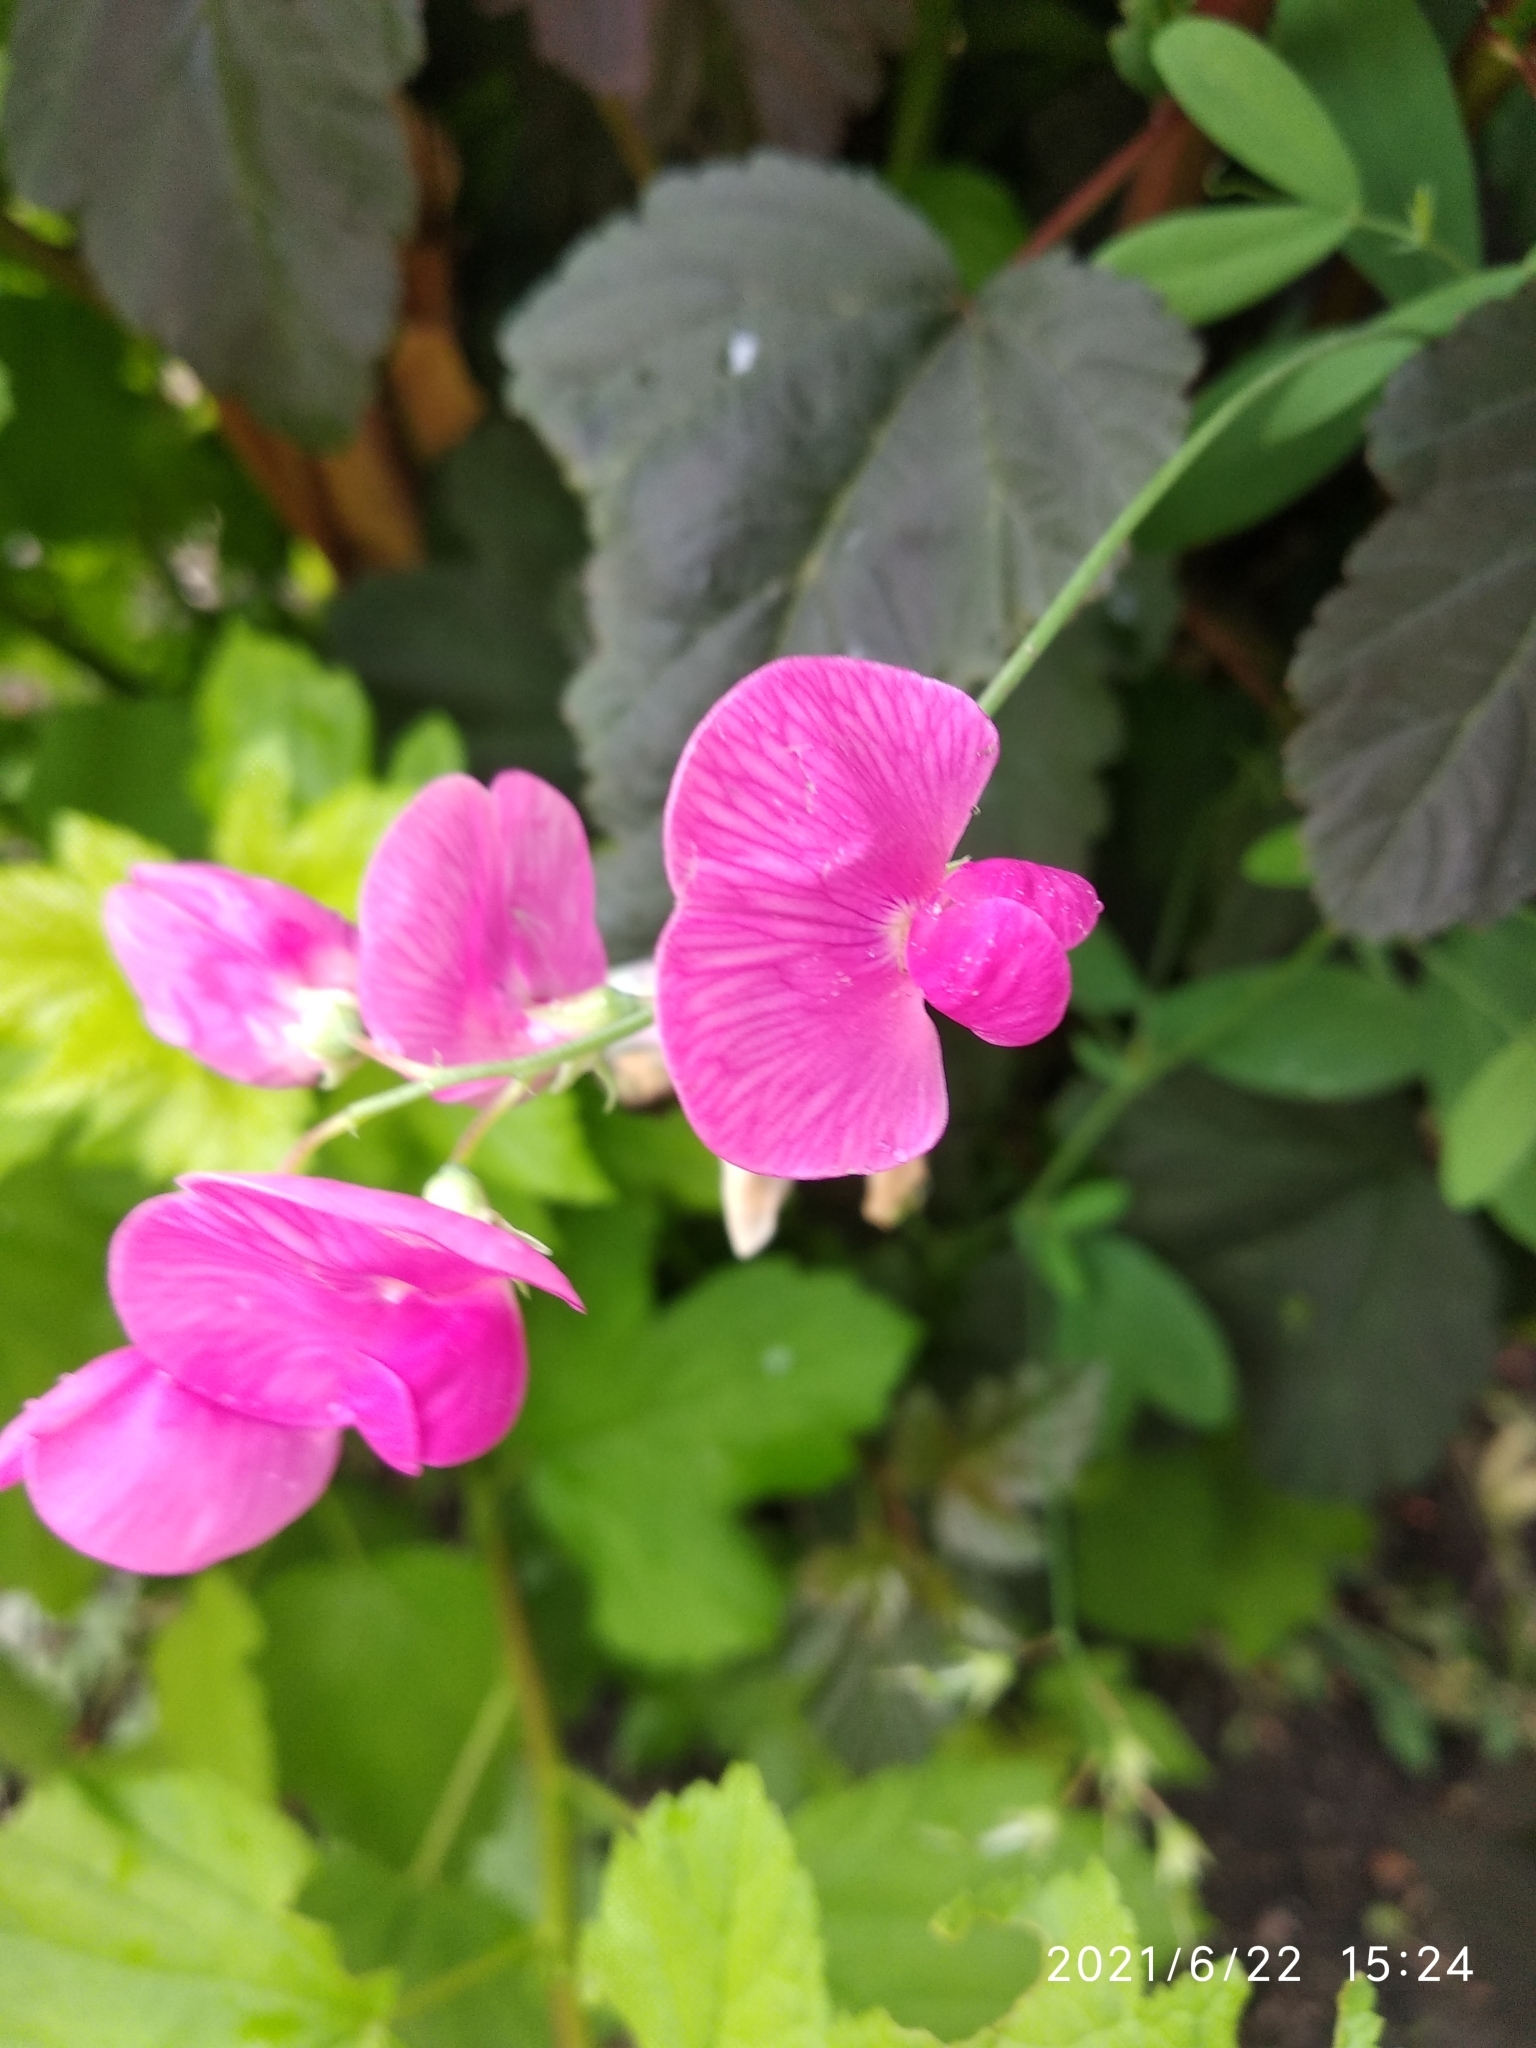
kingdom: Plantae
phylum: Tracheophyta
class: Magnoliopsida
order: Fabales
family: Fabaceae
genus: Lathyrus
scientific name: Lathyrus tuberosus
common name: Tuberous pea
